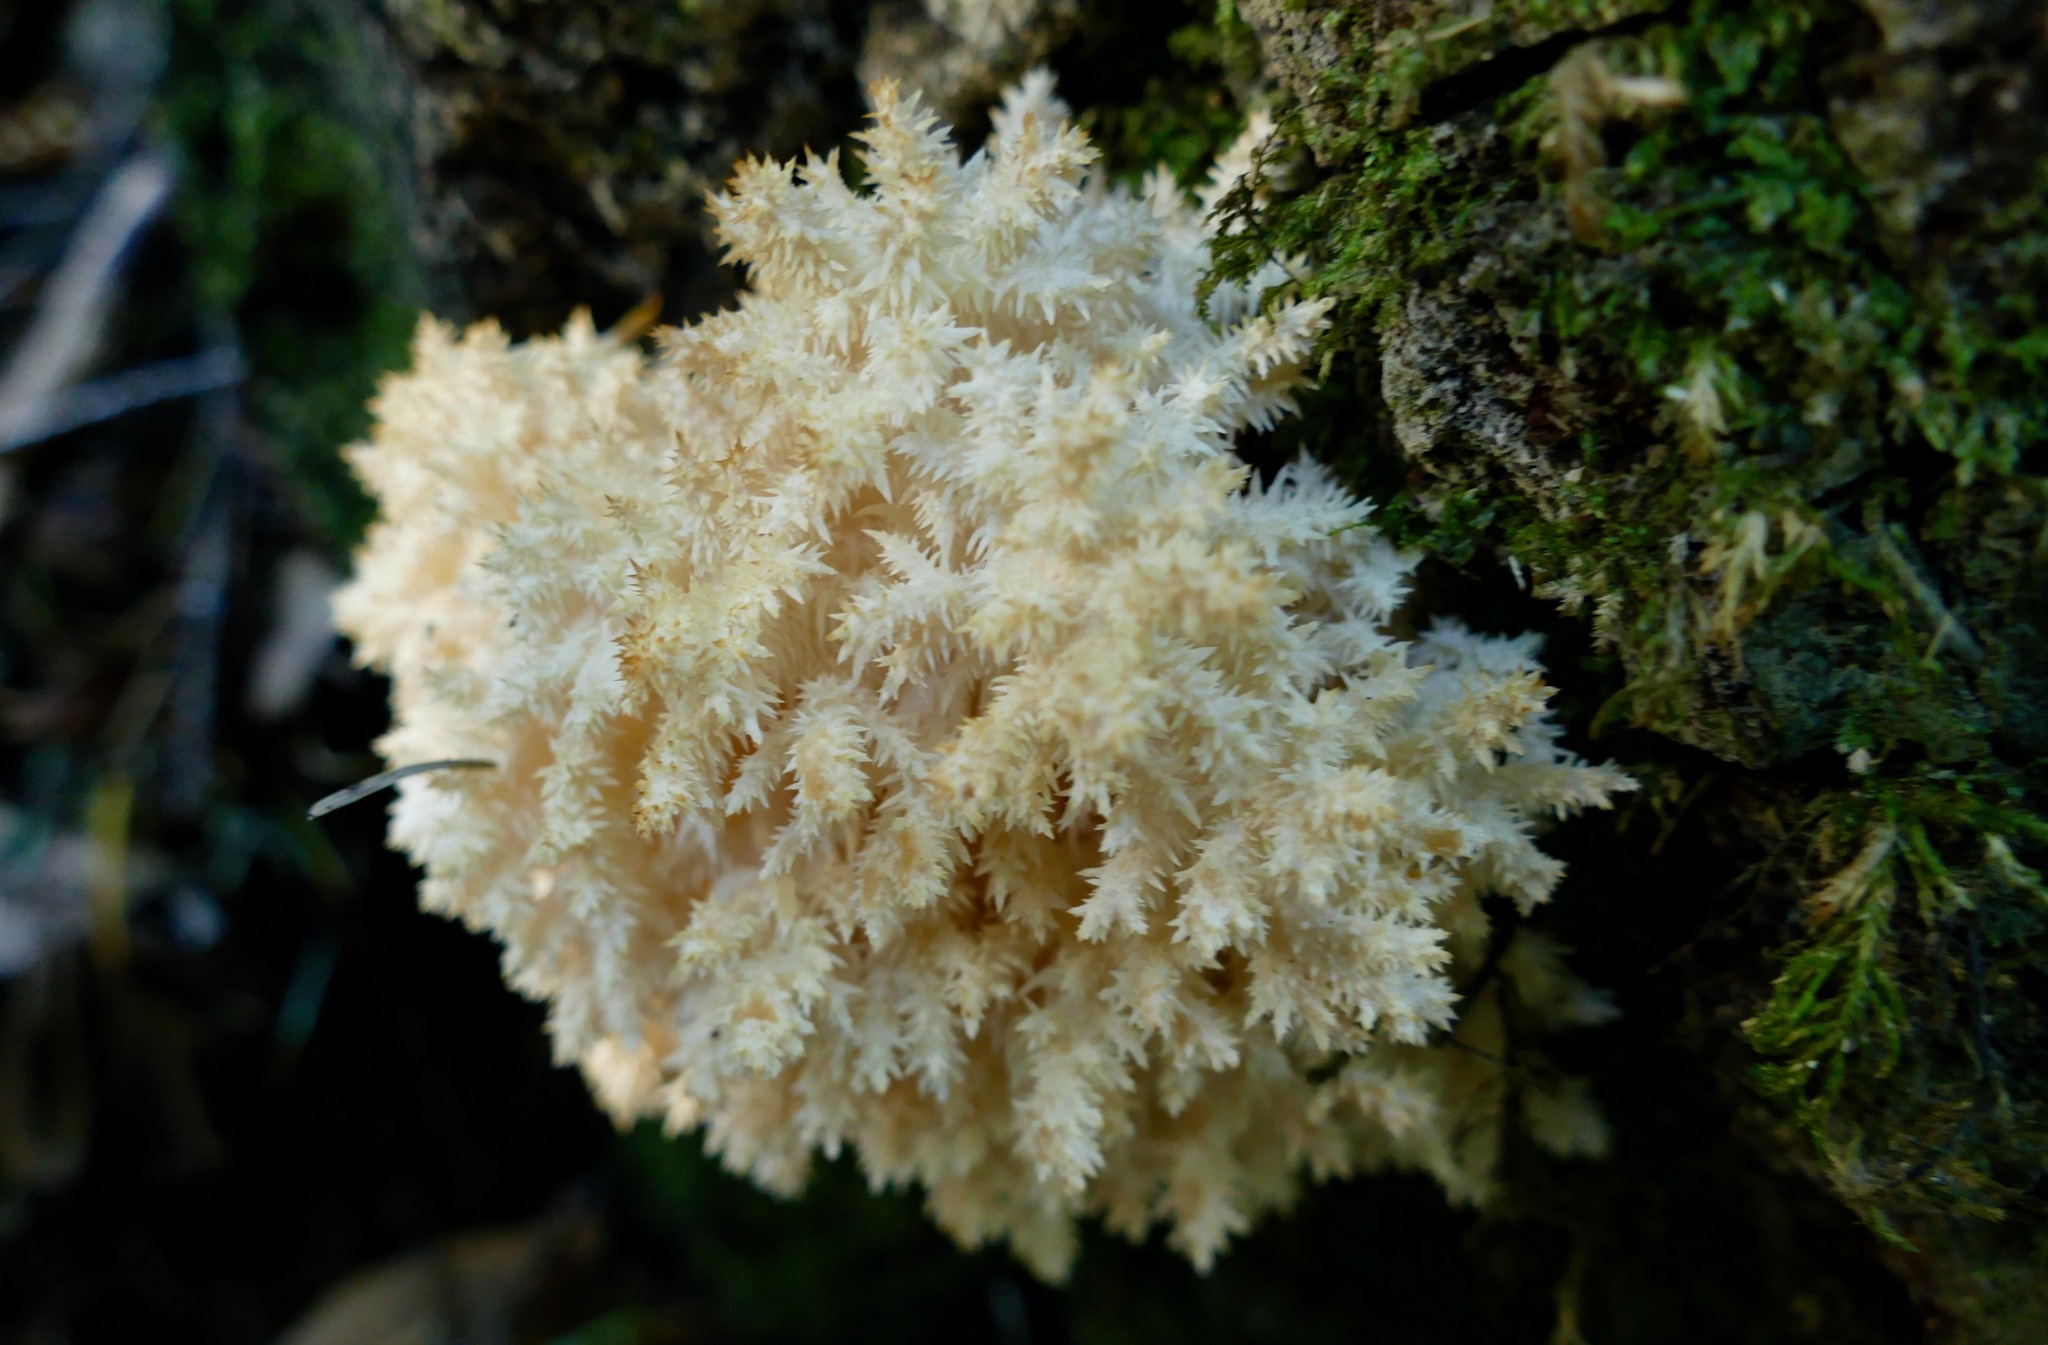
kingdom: Fungi
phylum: Basidiomycota
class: Agaricomycetes
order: Russulales
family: Hericiaceae
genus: Hericium
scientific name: Hericium coralloides
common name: Coral tooth
